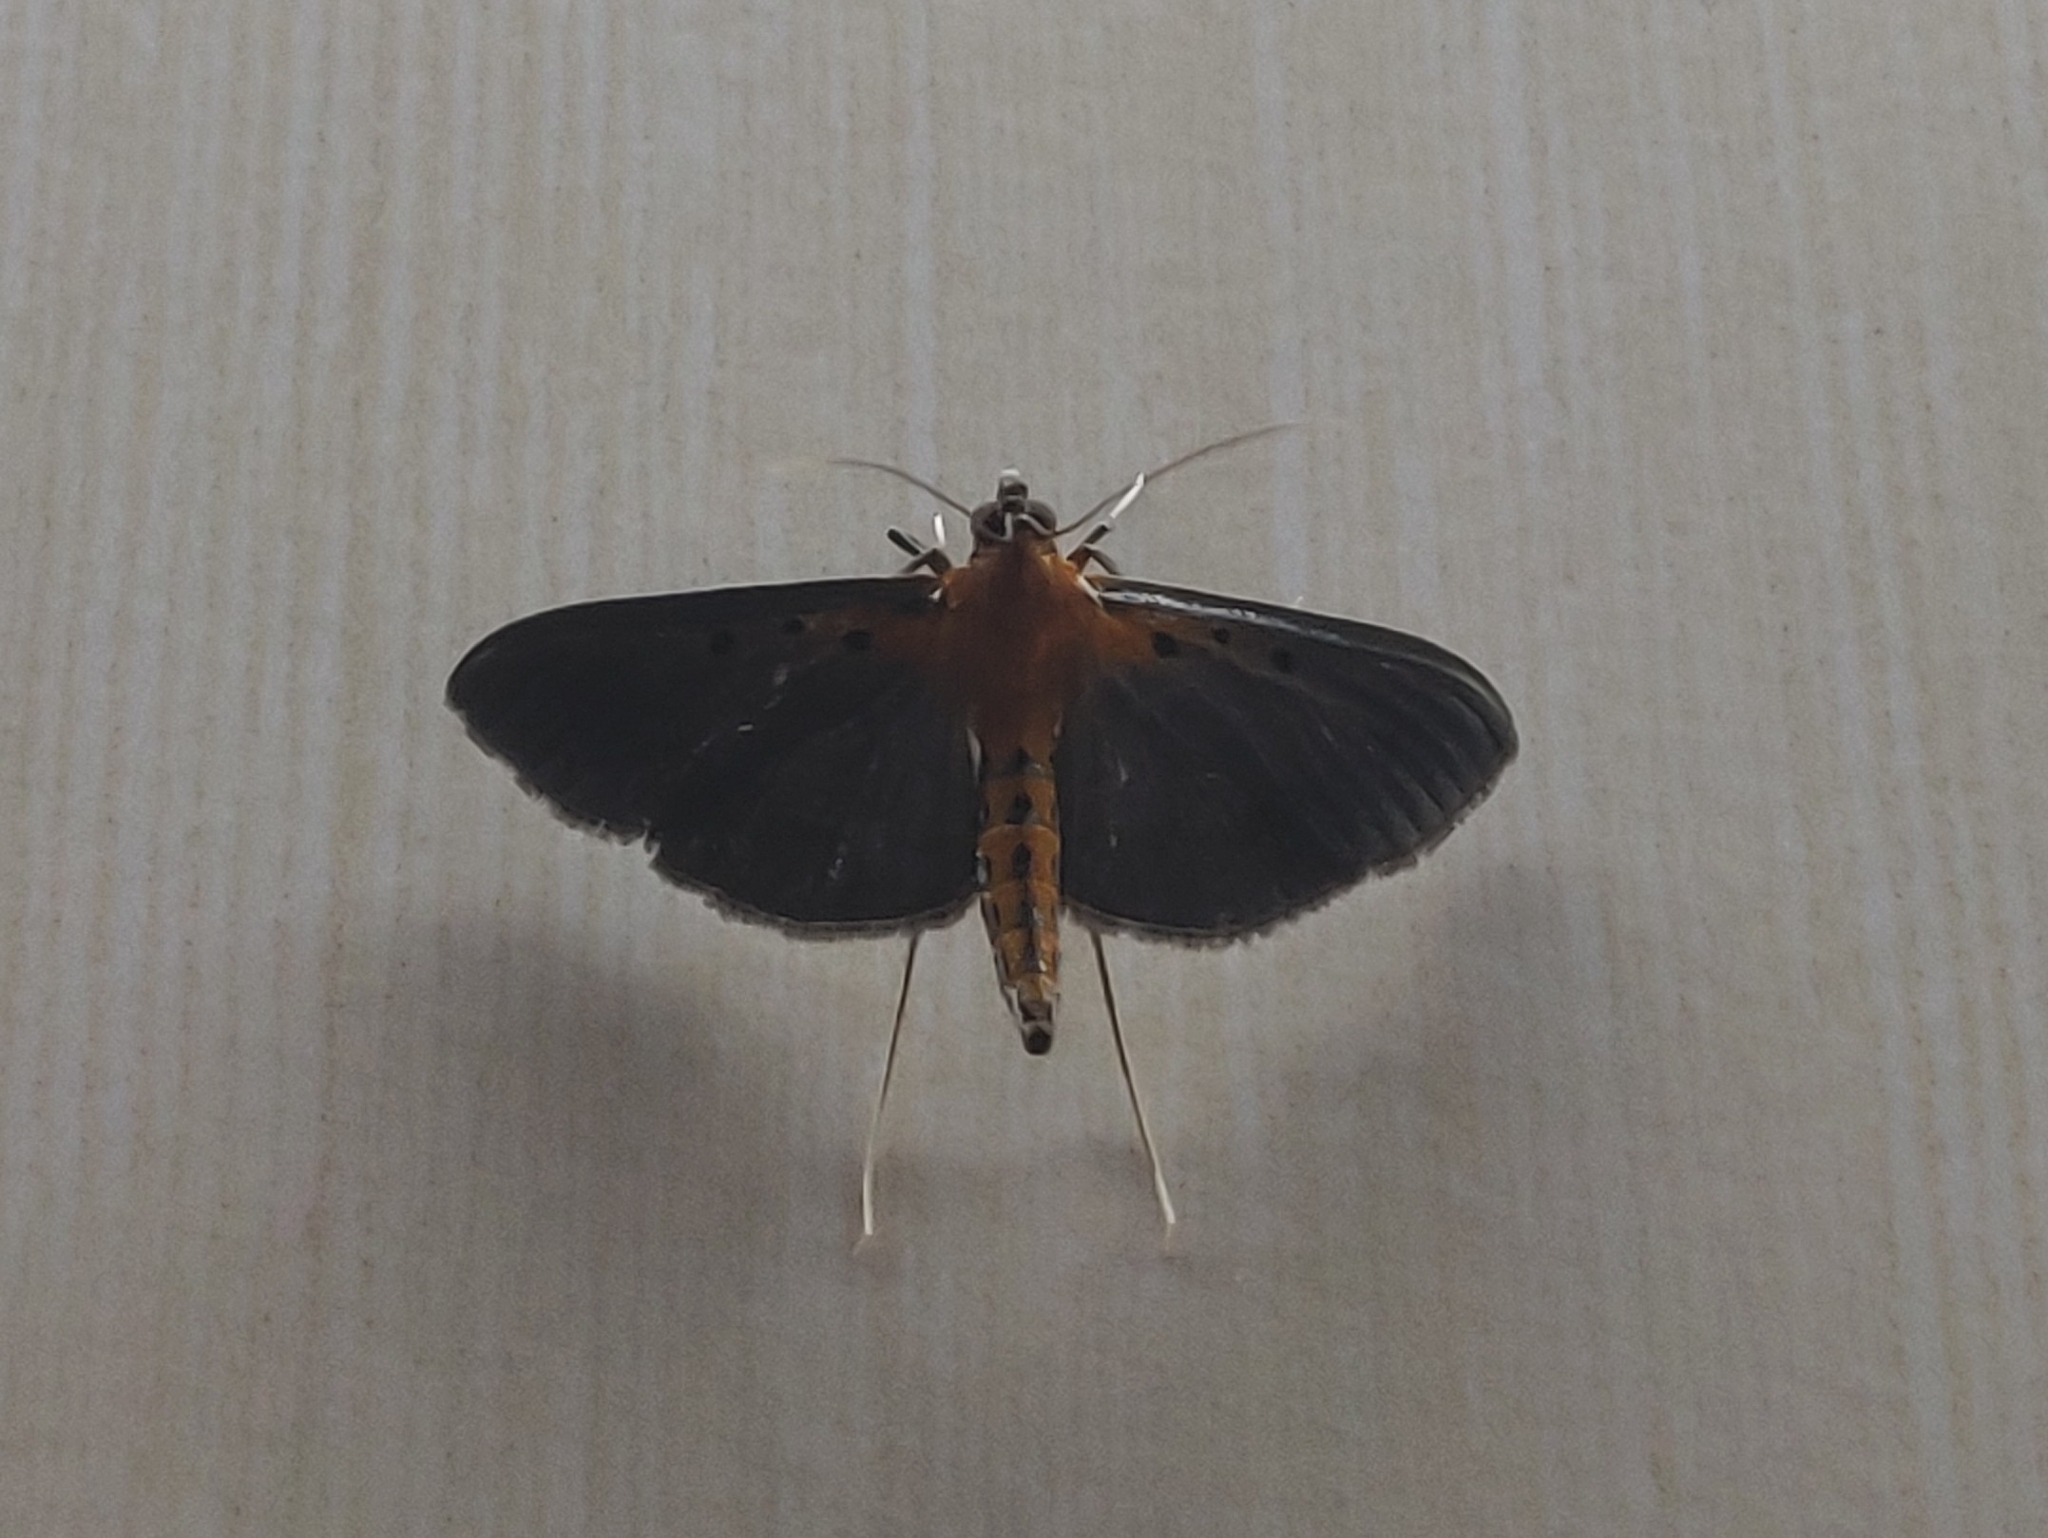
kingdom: Animalia
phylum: Arthropoda
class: Insecta
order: Lepidoptera
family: Crambidae
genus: Filodes
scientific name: Filodes fulvidorsalis
